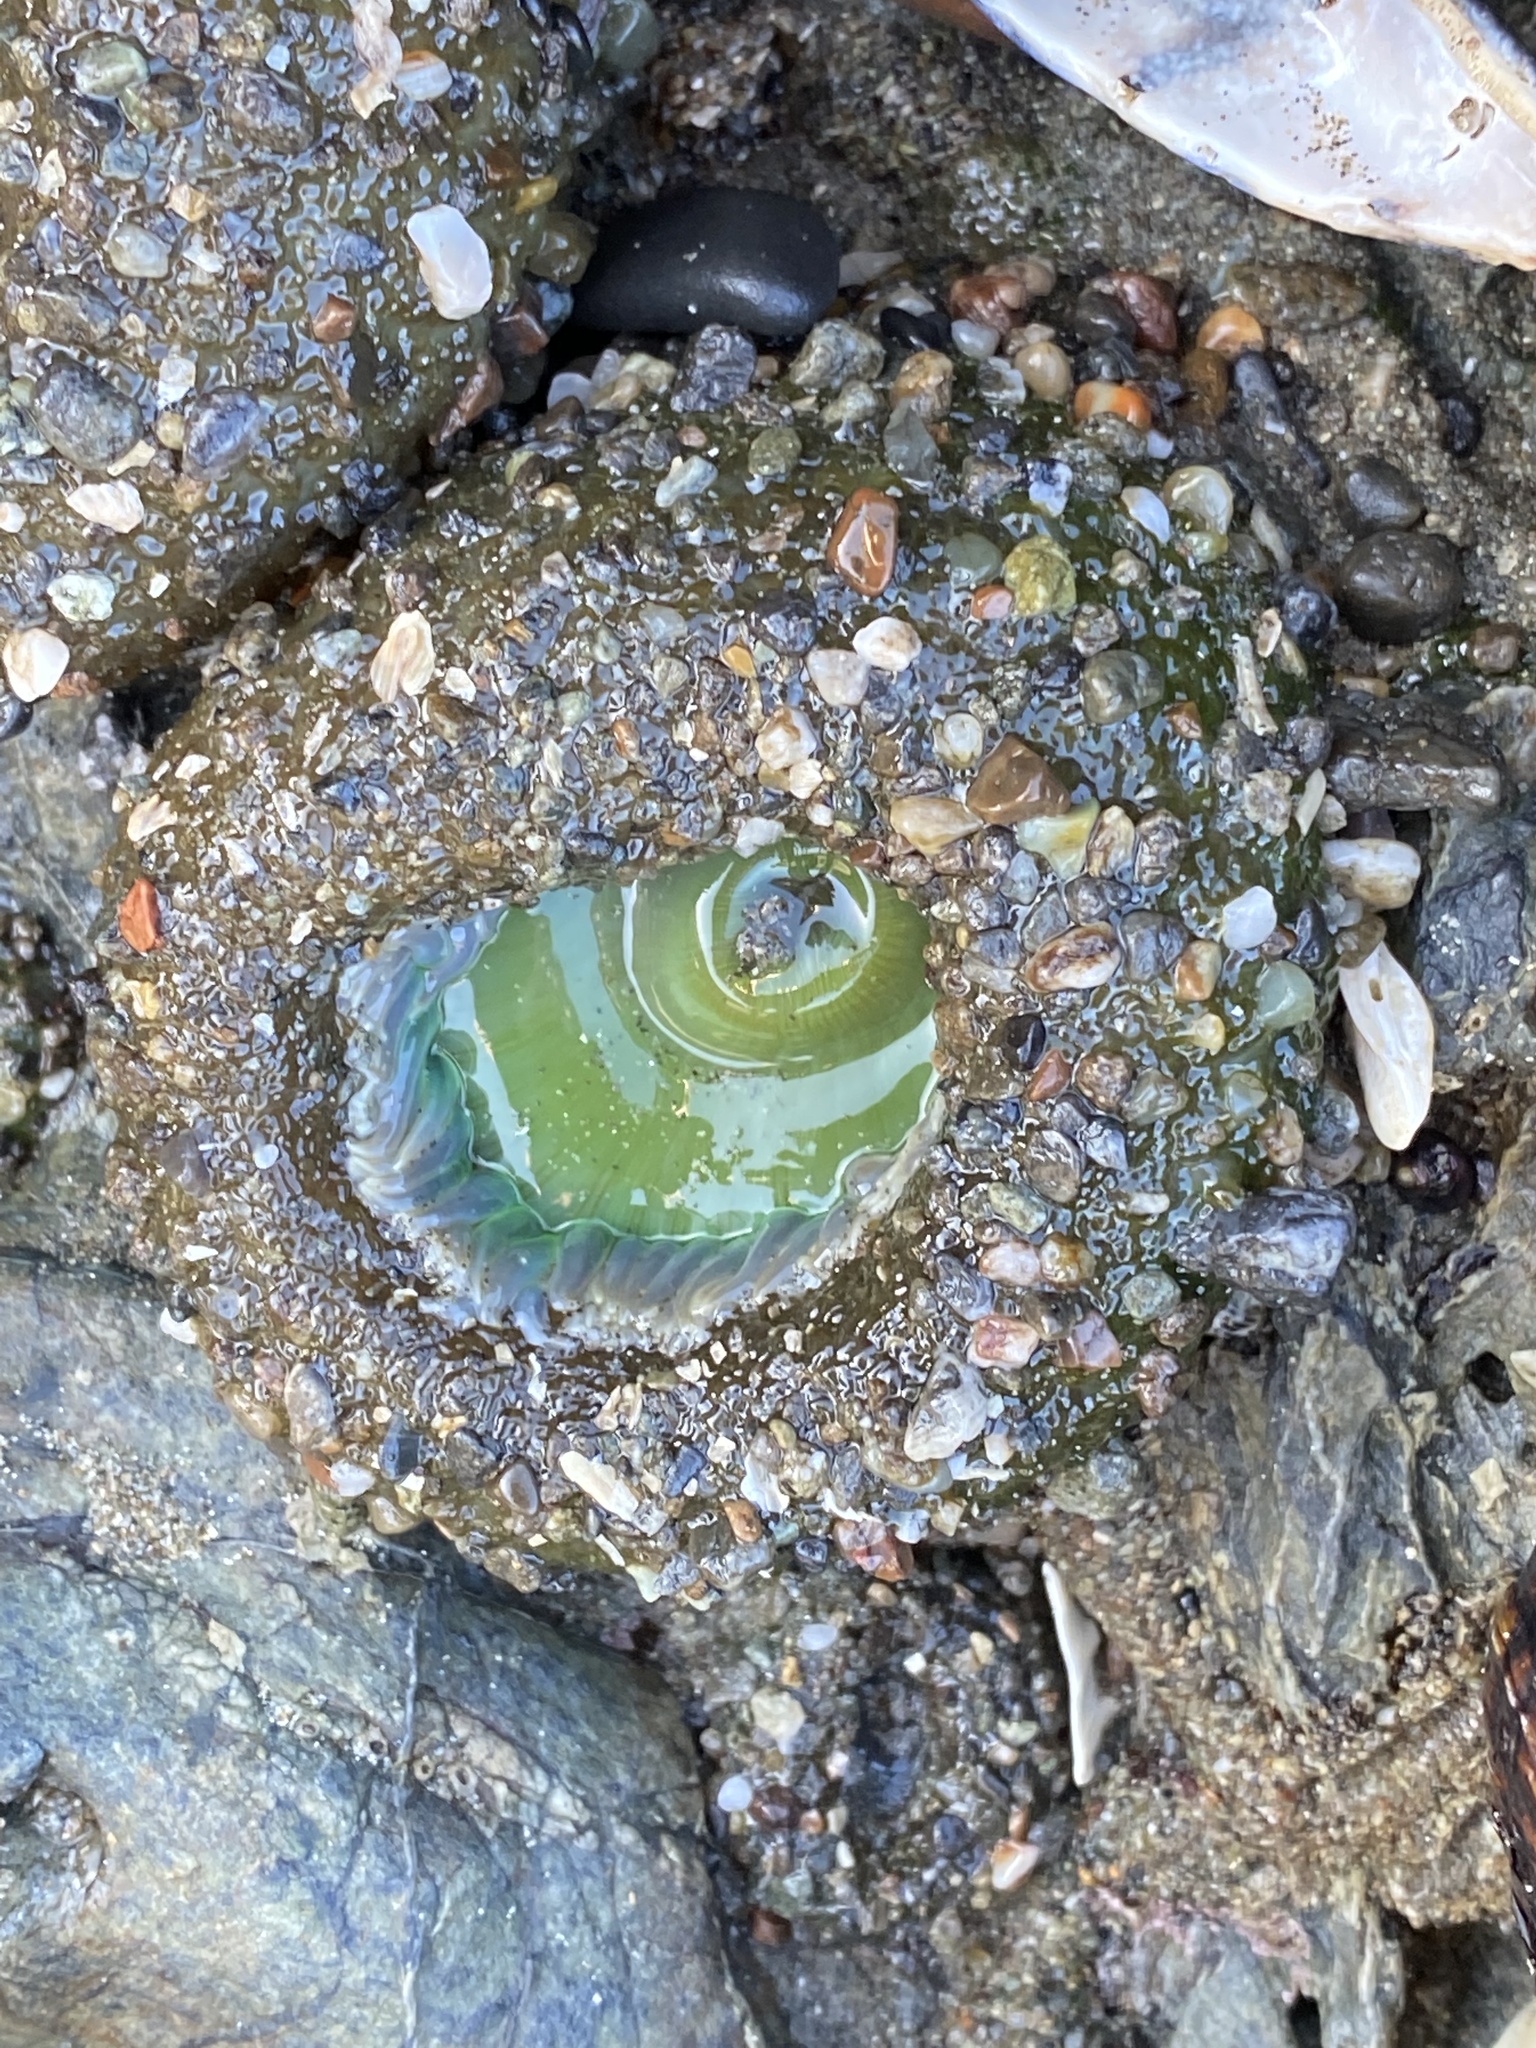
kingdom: Animalia
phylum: Cnidaria
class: Anthozoa
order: Actiniaria
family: Actiniidae
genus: Anthopleura
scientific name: Anthopleura xanthogrammica
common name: Giant green anemone
